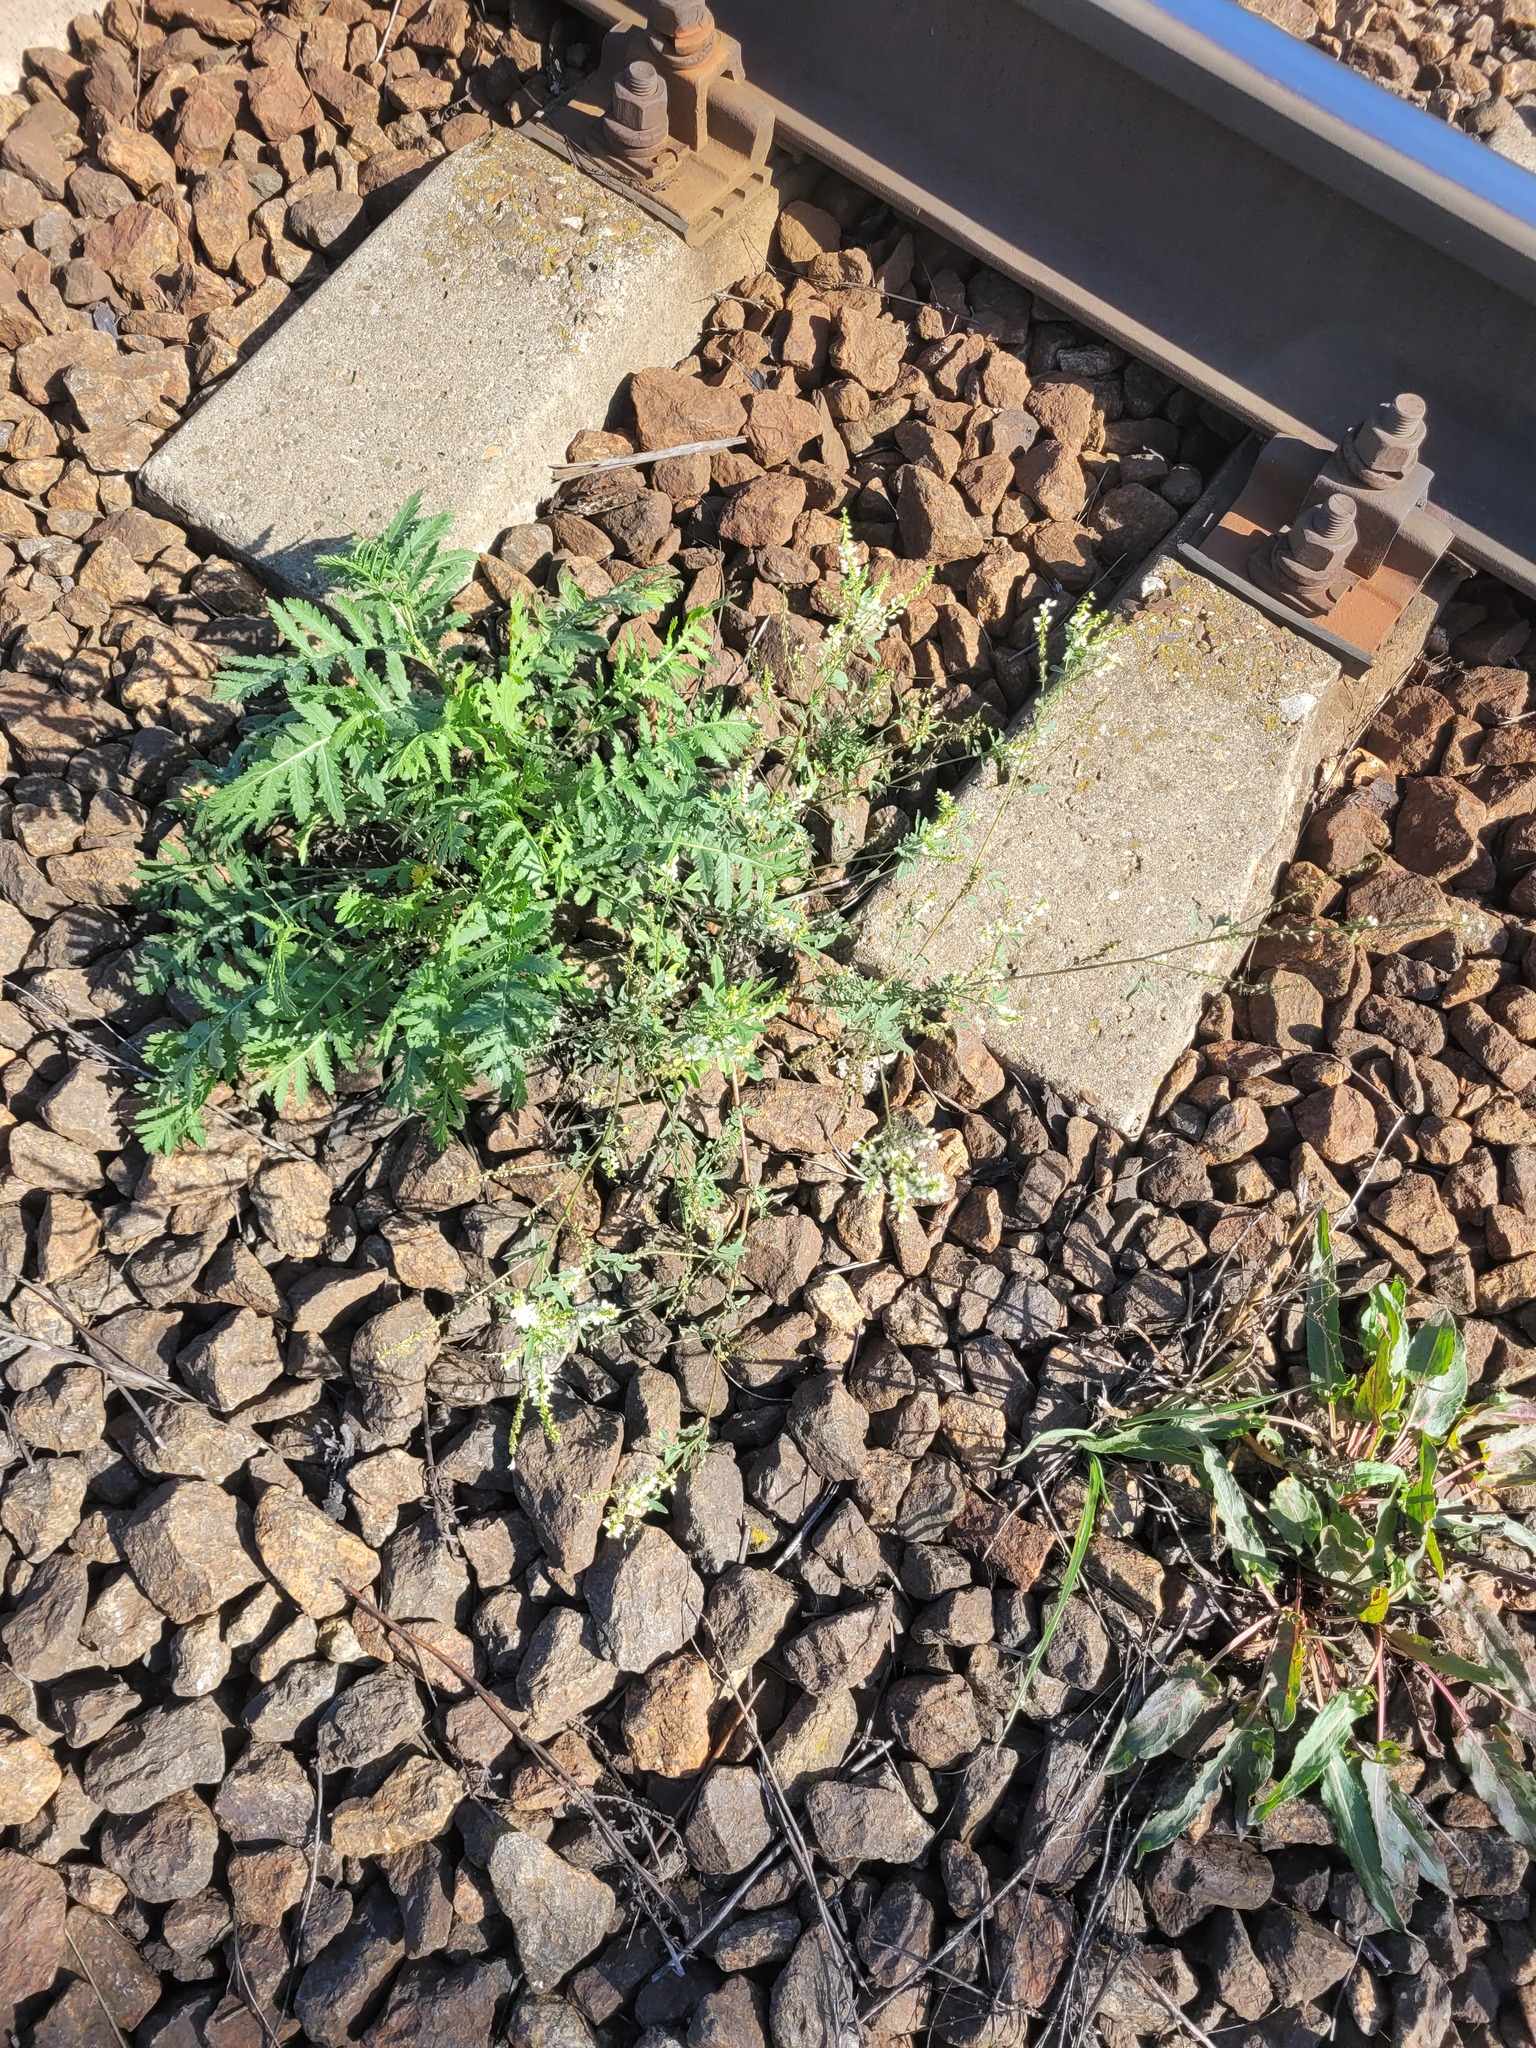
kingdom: Plantae
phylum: Tracheophyta
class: Magnoliopsida
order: Fabales
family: Fabaceae
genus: Melilotus
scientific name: Melilotus albus
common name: White melilot
